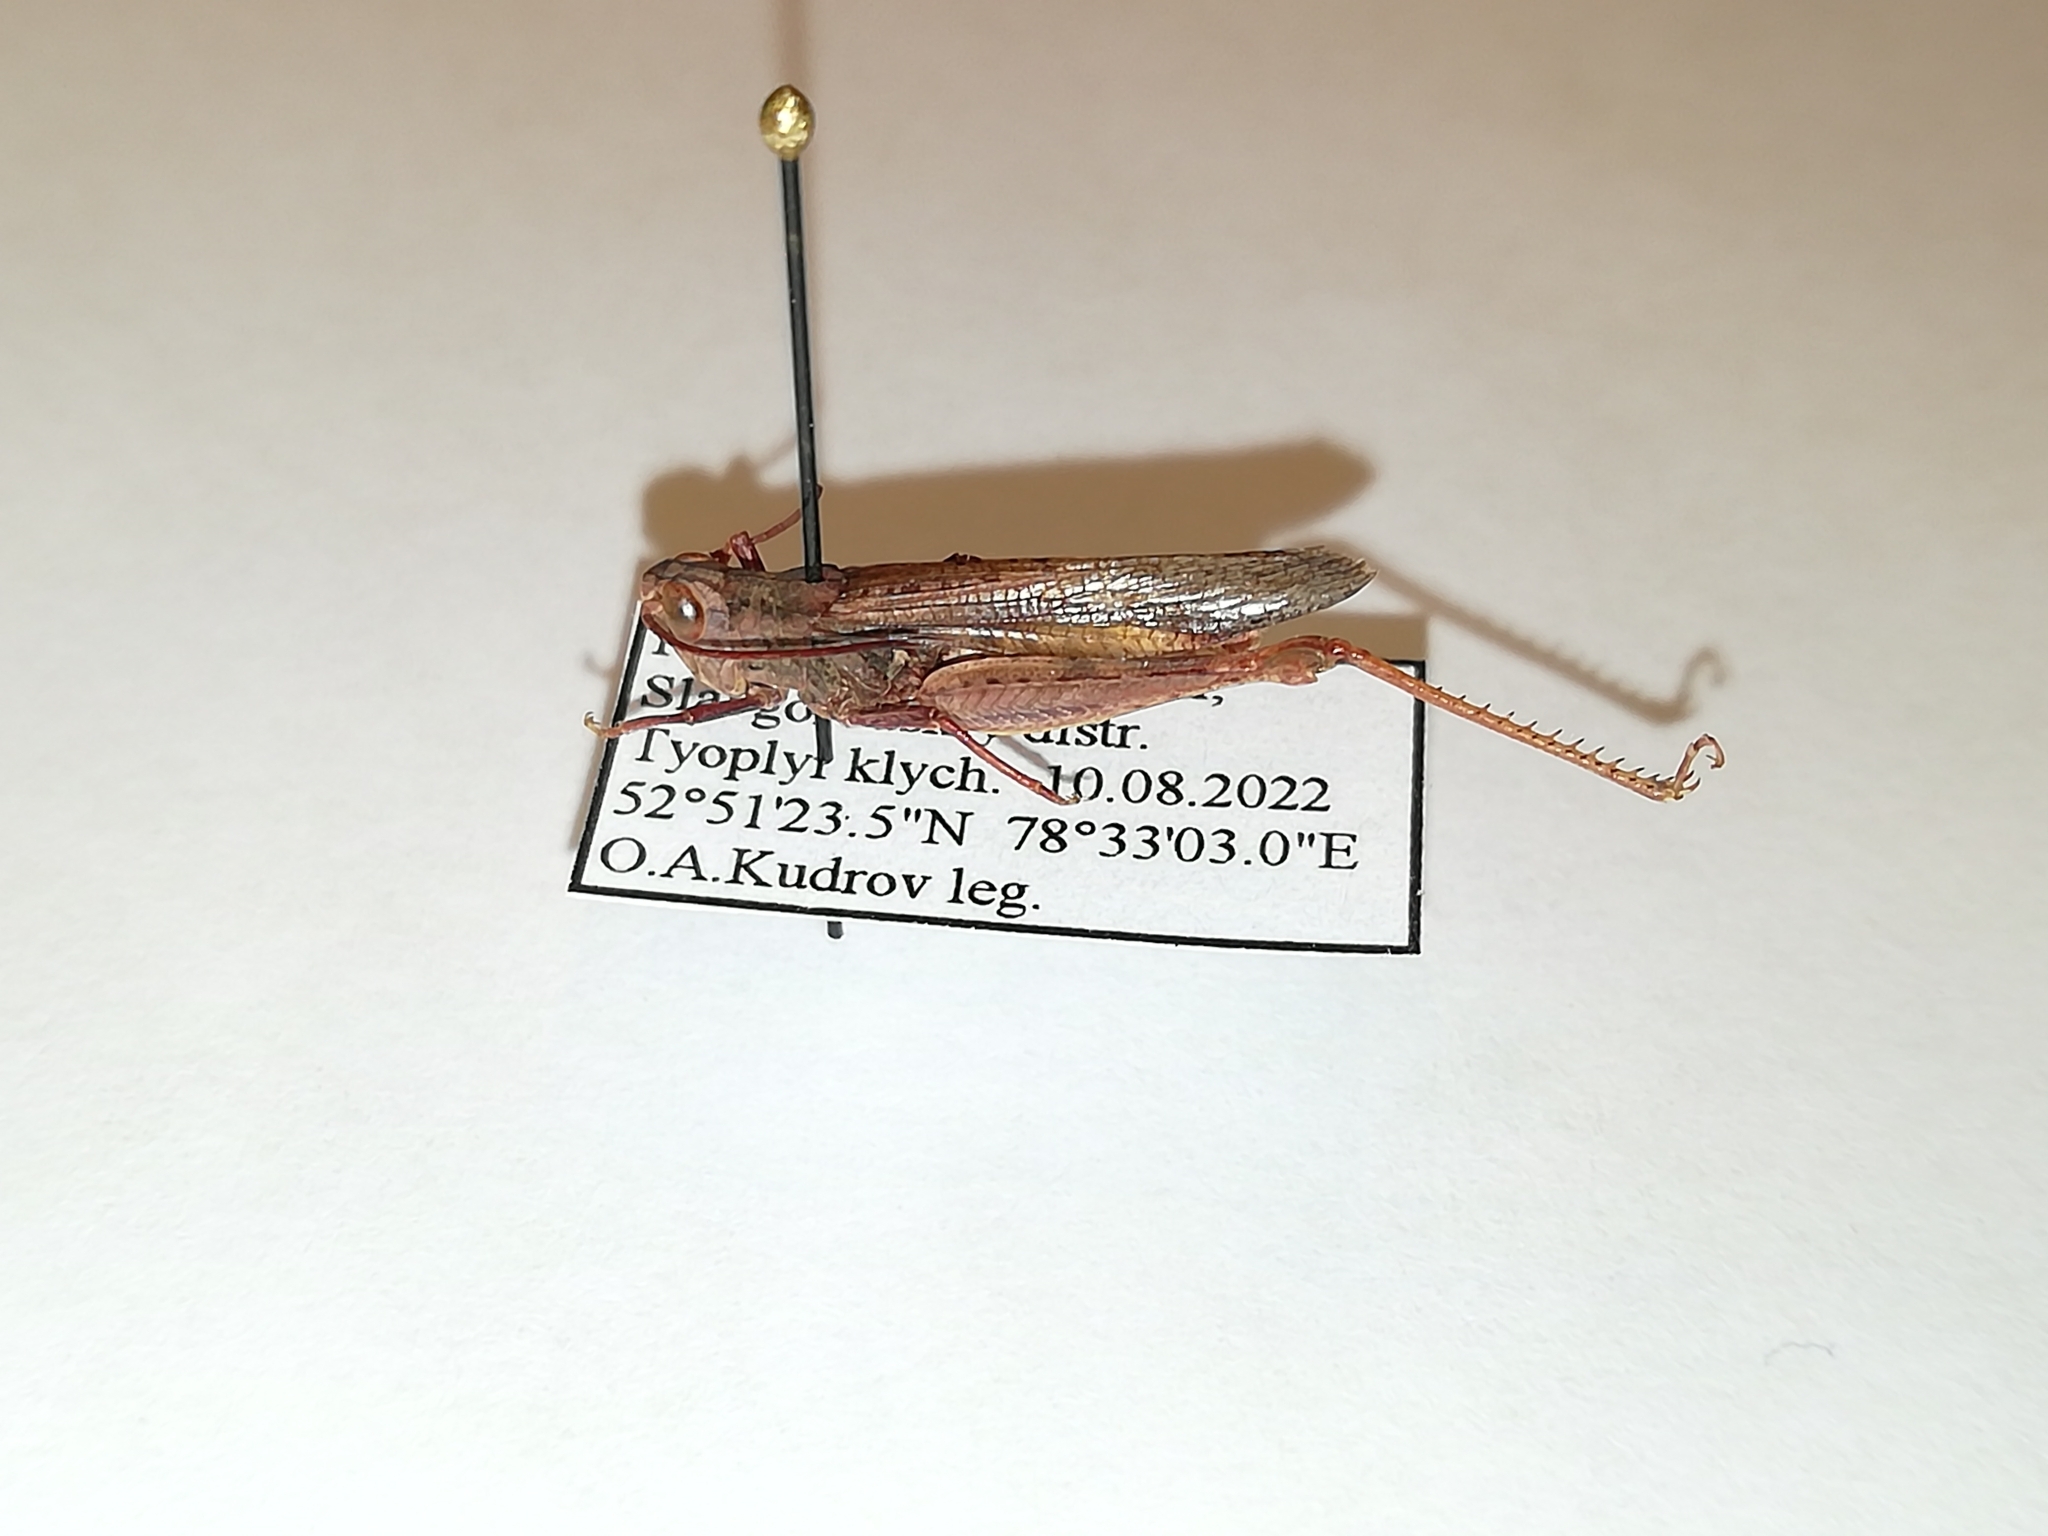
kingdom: Animalia
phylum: Arthropoda
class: Insecta
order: Orthoptera
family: Acrididae
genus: Chorthippus
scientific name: Chorthippus miramae
